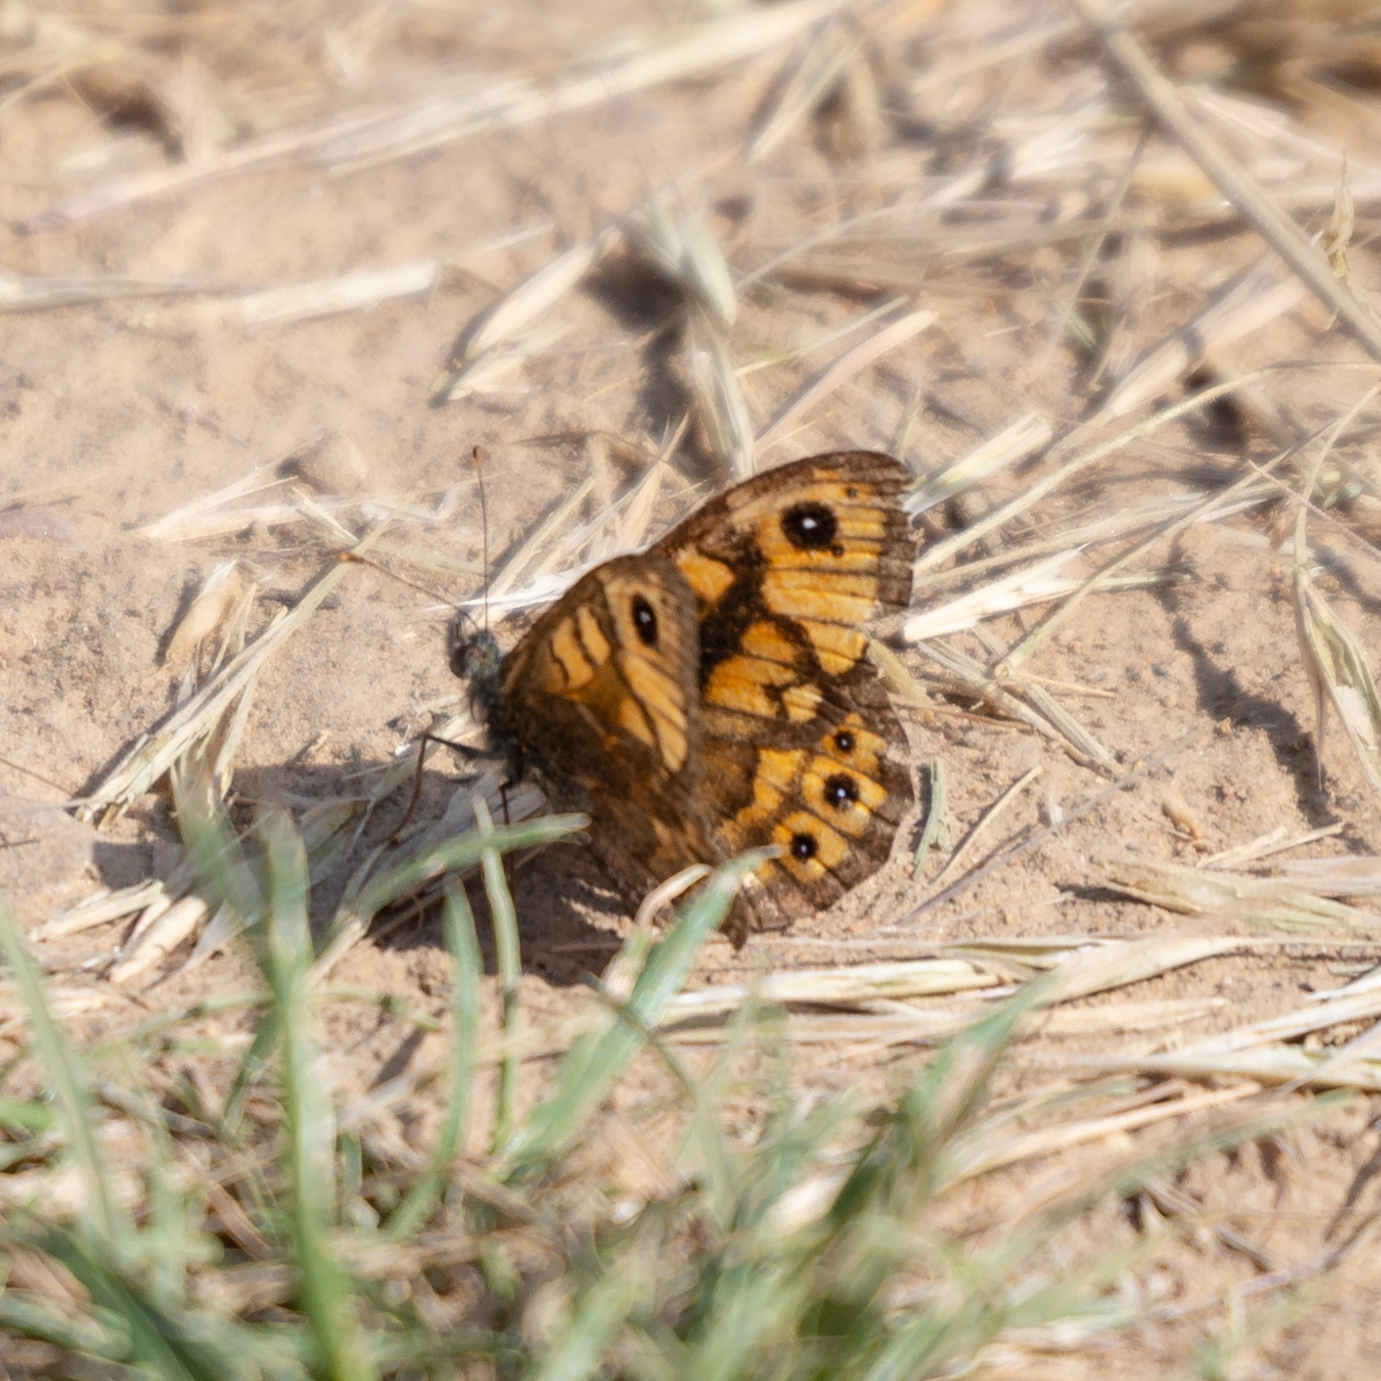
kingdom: Animalia
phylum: Arthropoda
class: Insecta
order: Lepidoptera
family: Nymphalidae
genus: Pararge
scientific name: Pararge Lasiommata megera
